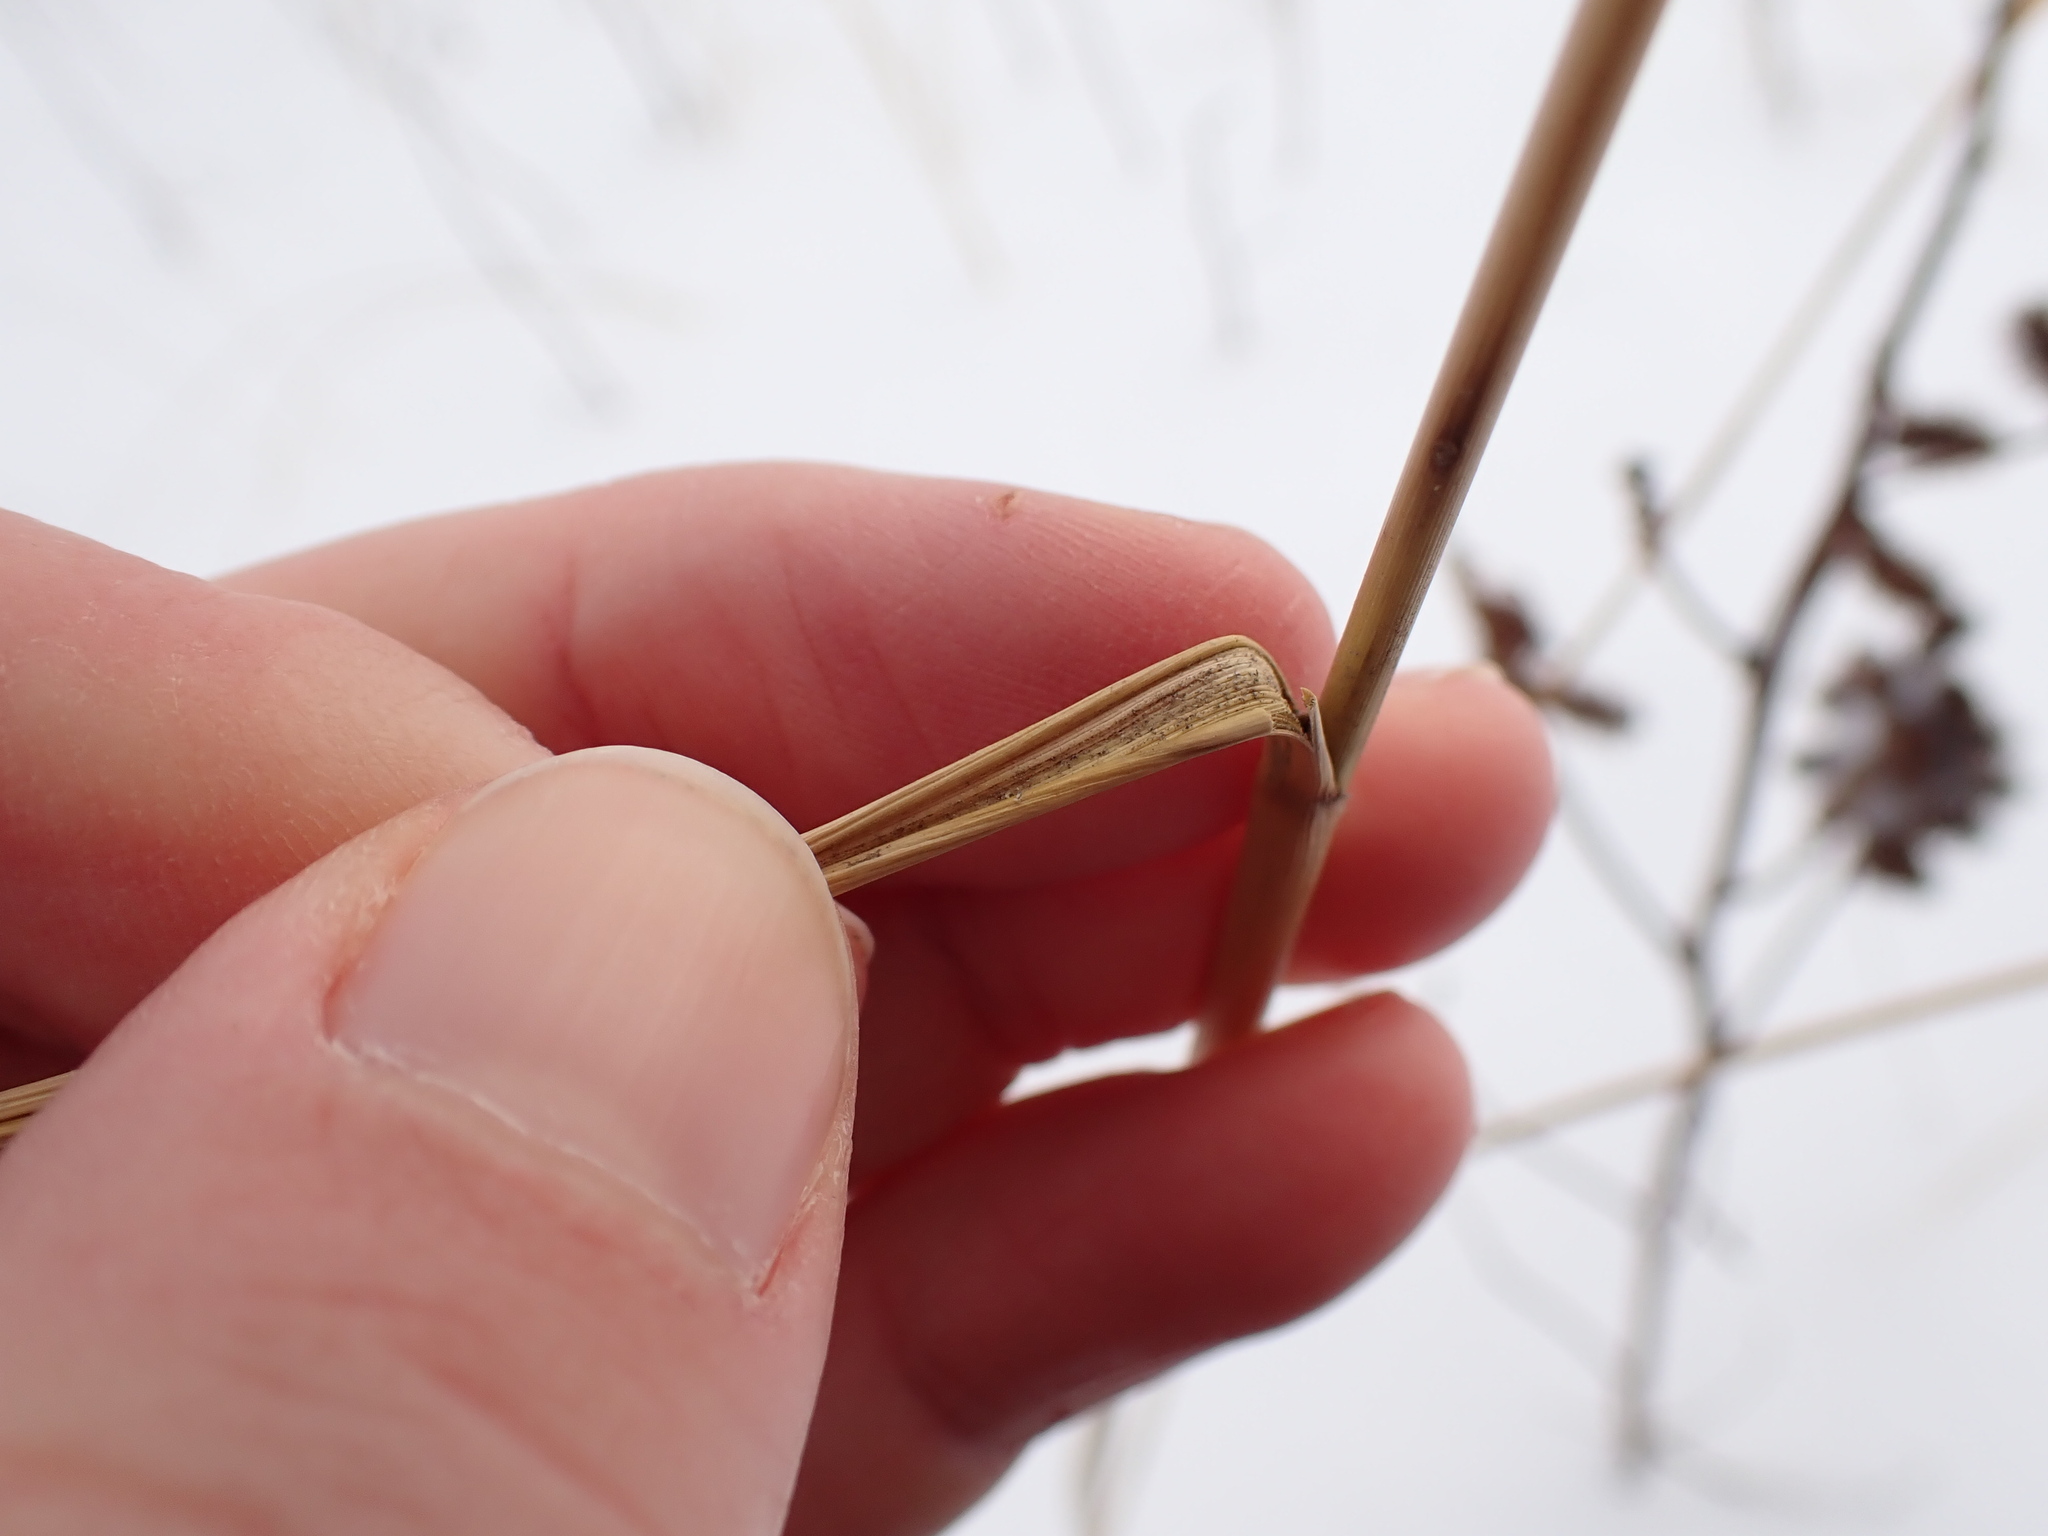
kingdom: Plantae
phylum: Tracheophyta
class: Liliopsida
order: Poales
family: Poaceae
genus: Sporobolus
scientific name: Sporobolus michauxianus
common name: Freshwater cordgrass
